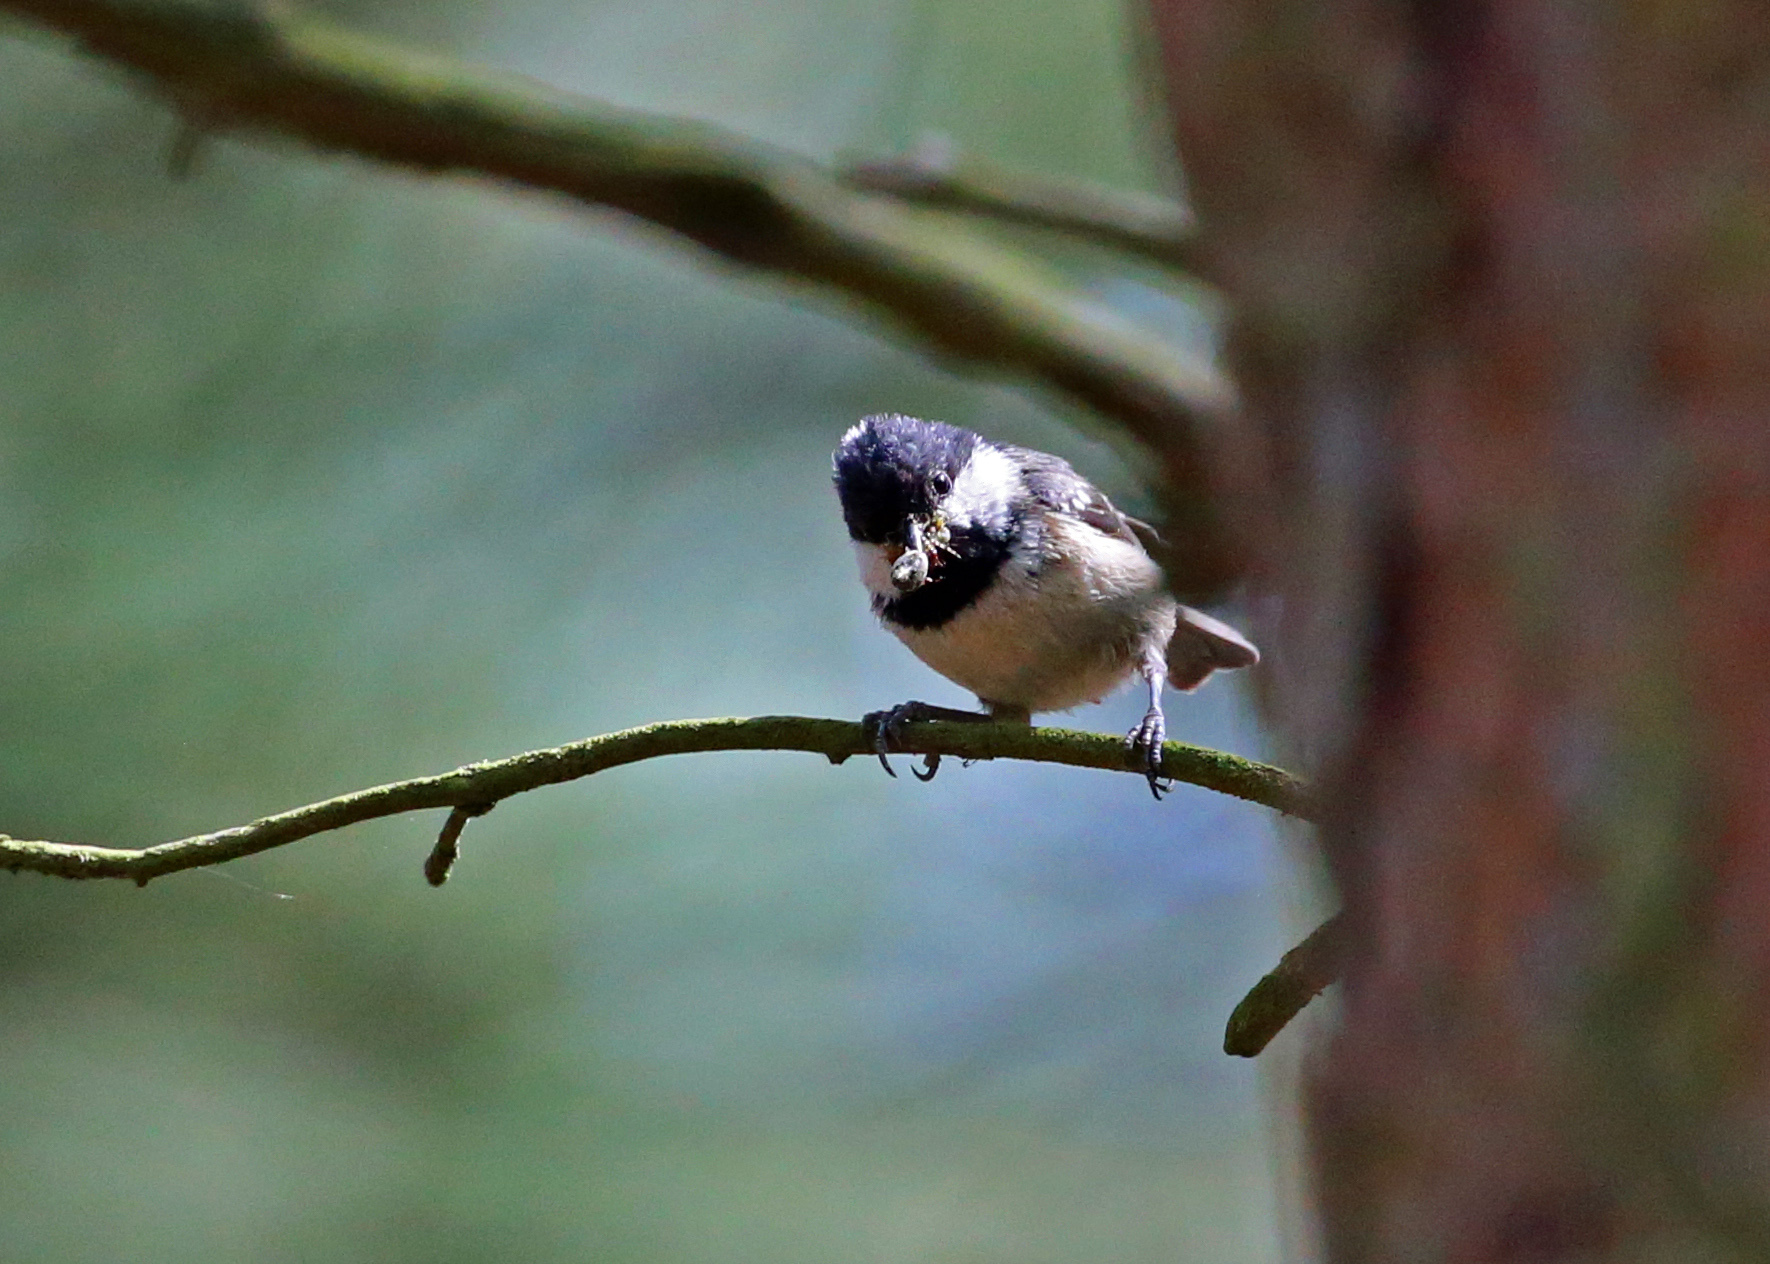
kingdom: Animalia
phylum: Chordata
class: Aves
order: Passeriformes
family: Paridae
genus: Periparus
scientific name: Periparus ater
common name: Coal tit
